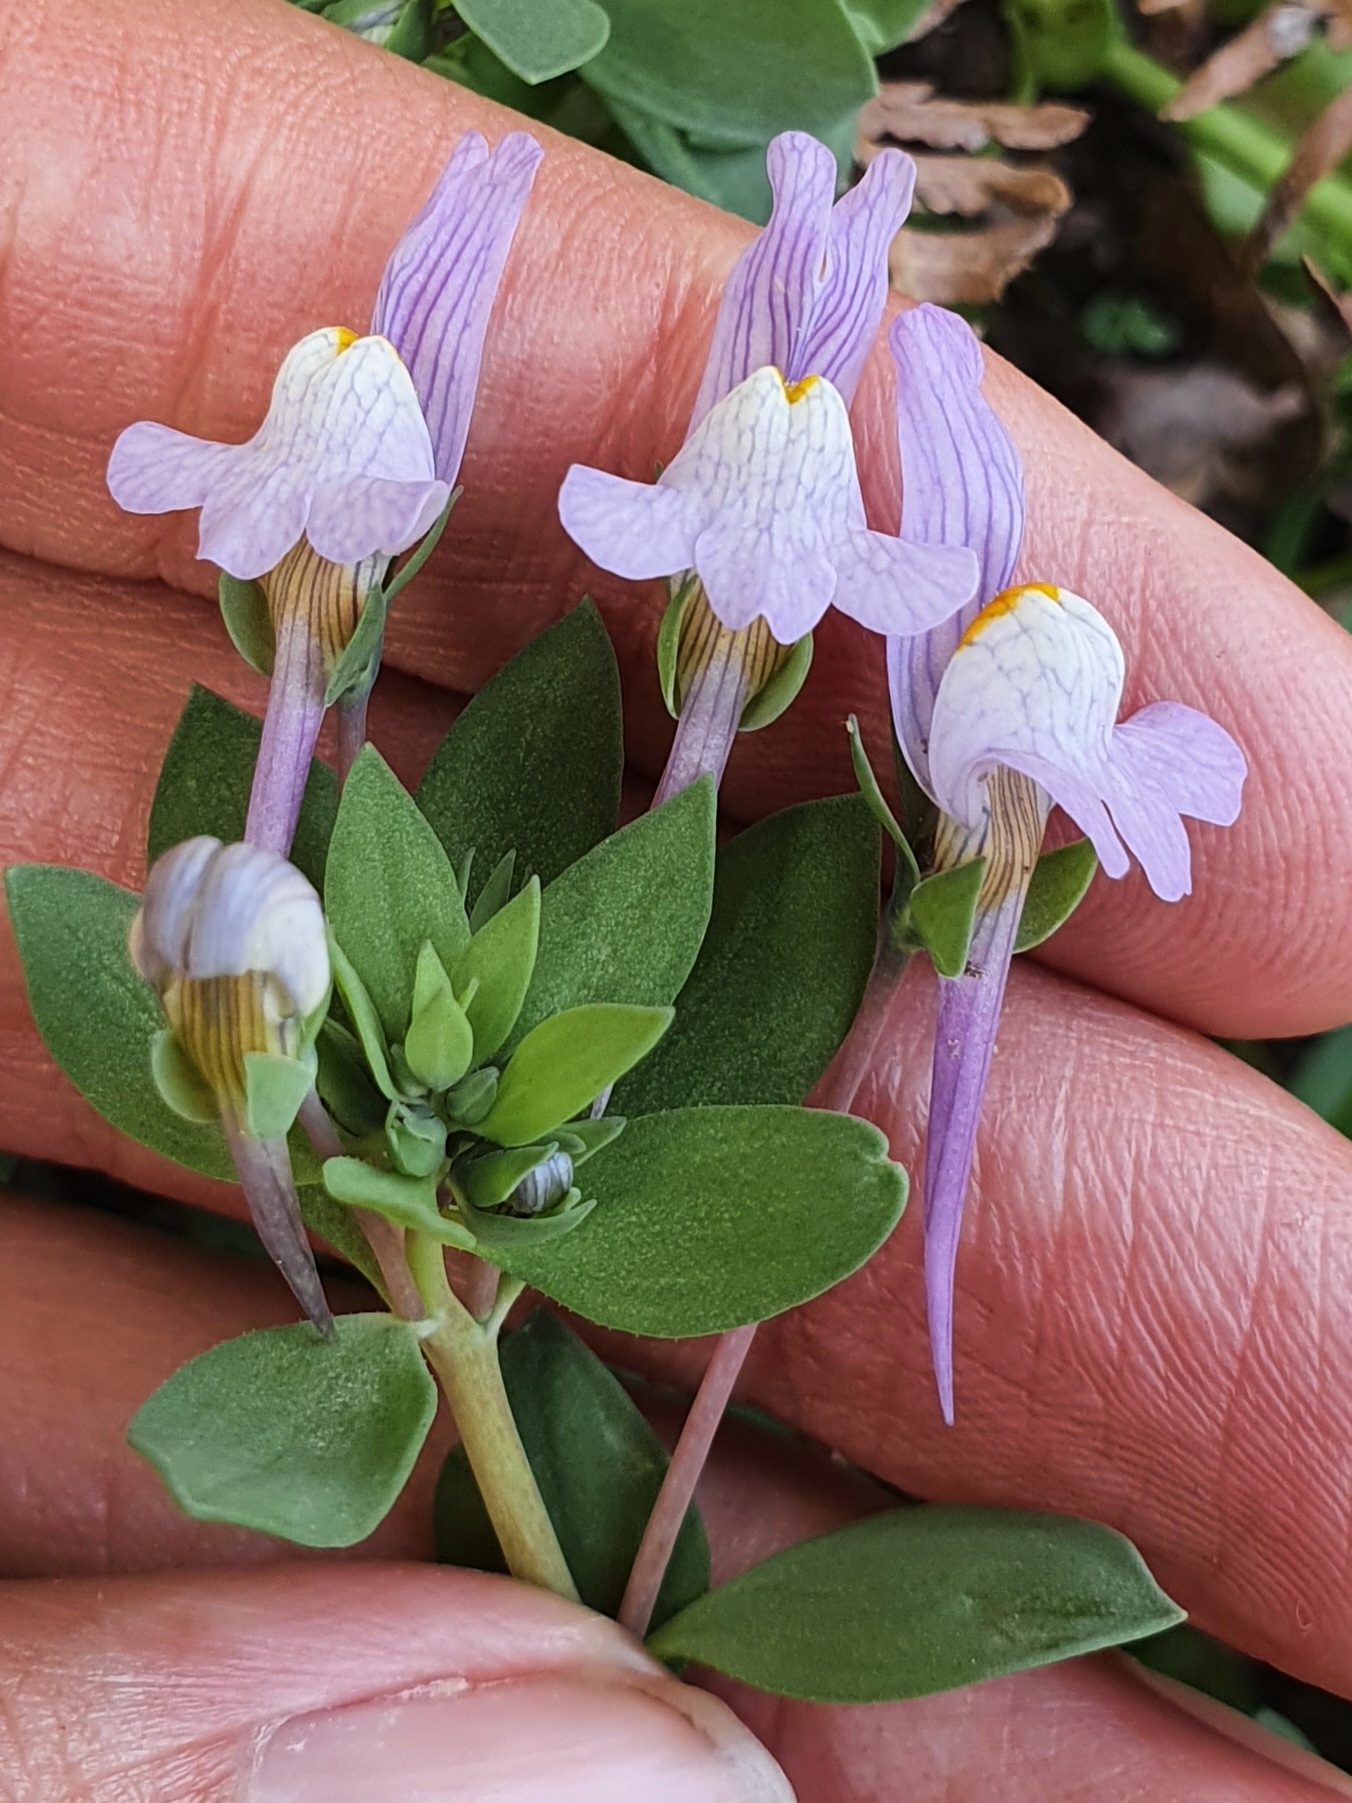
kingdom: Plantae
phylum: Tracheophyta
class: Magnoliopsida
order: Lamiales
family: Plantaginaceae
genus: Linaria
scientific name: Linaria reflexa
